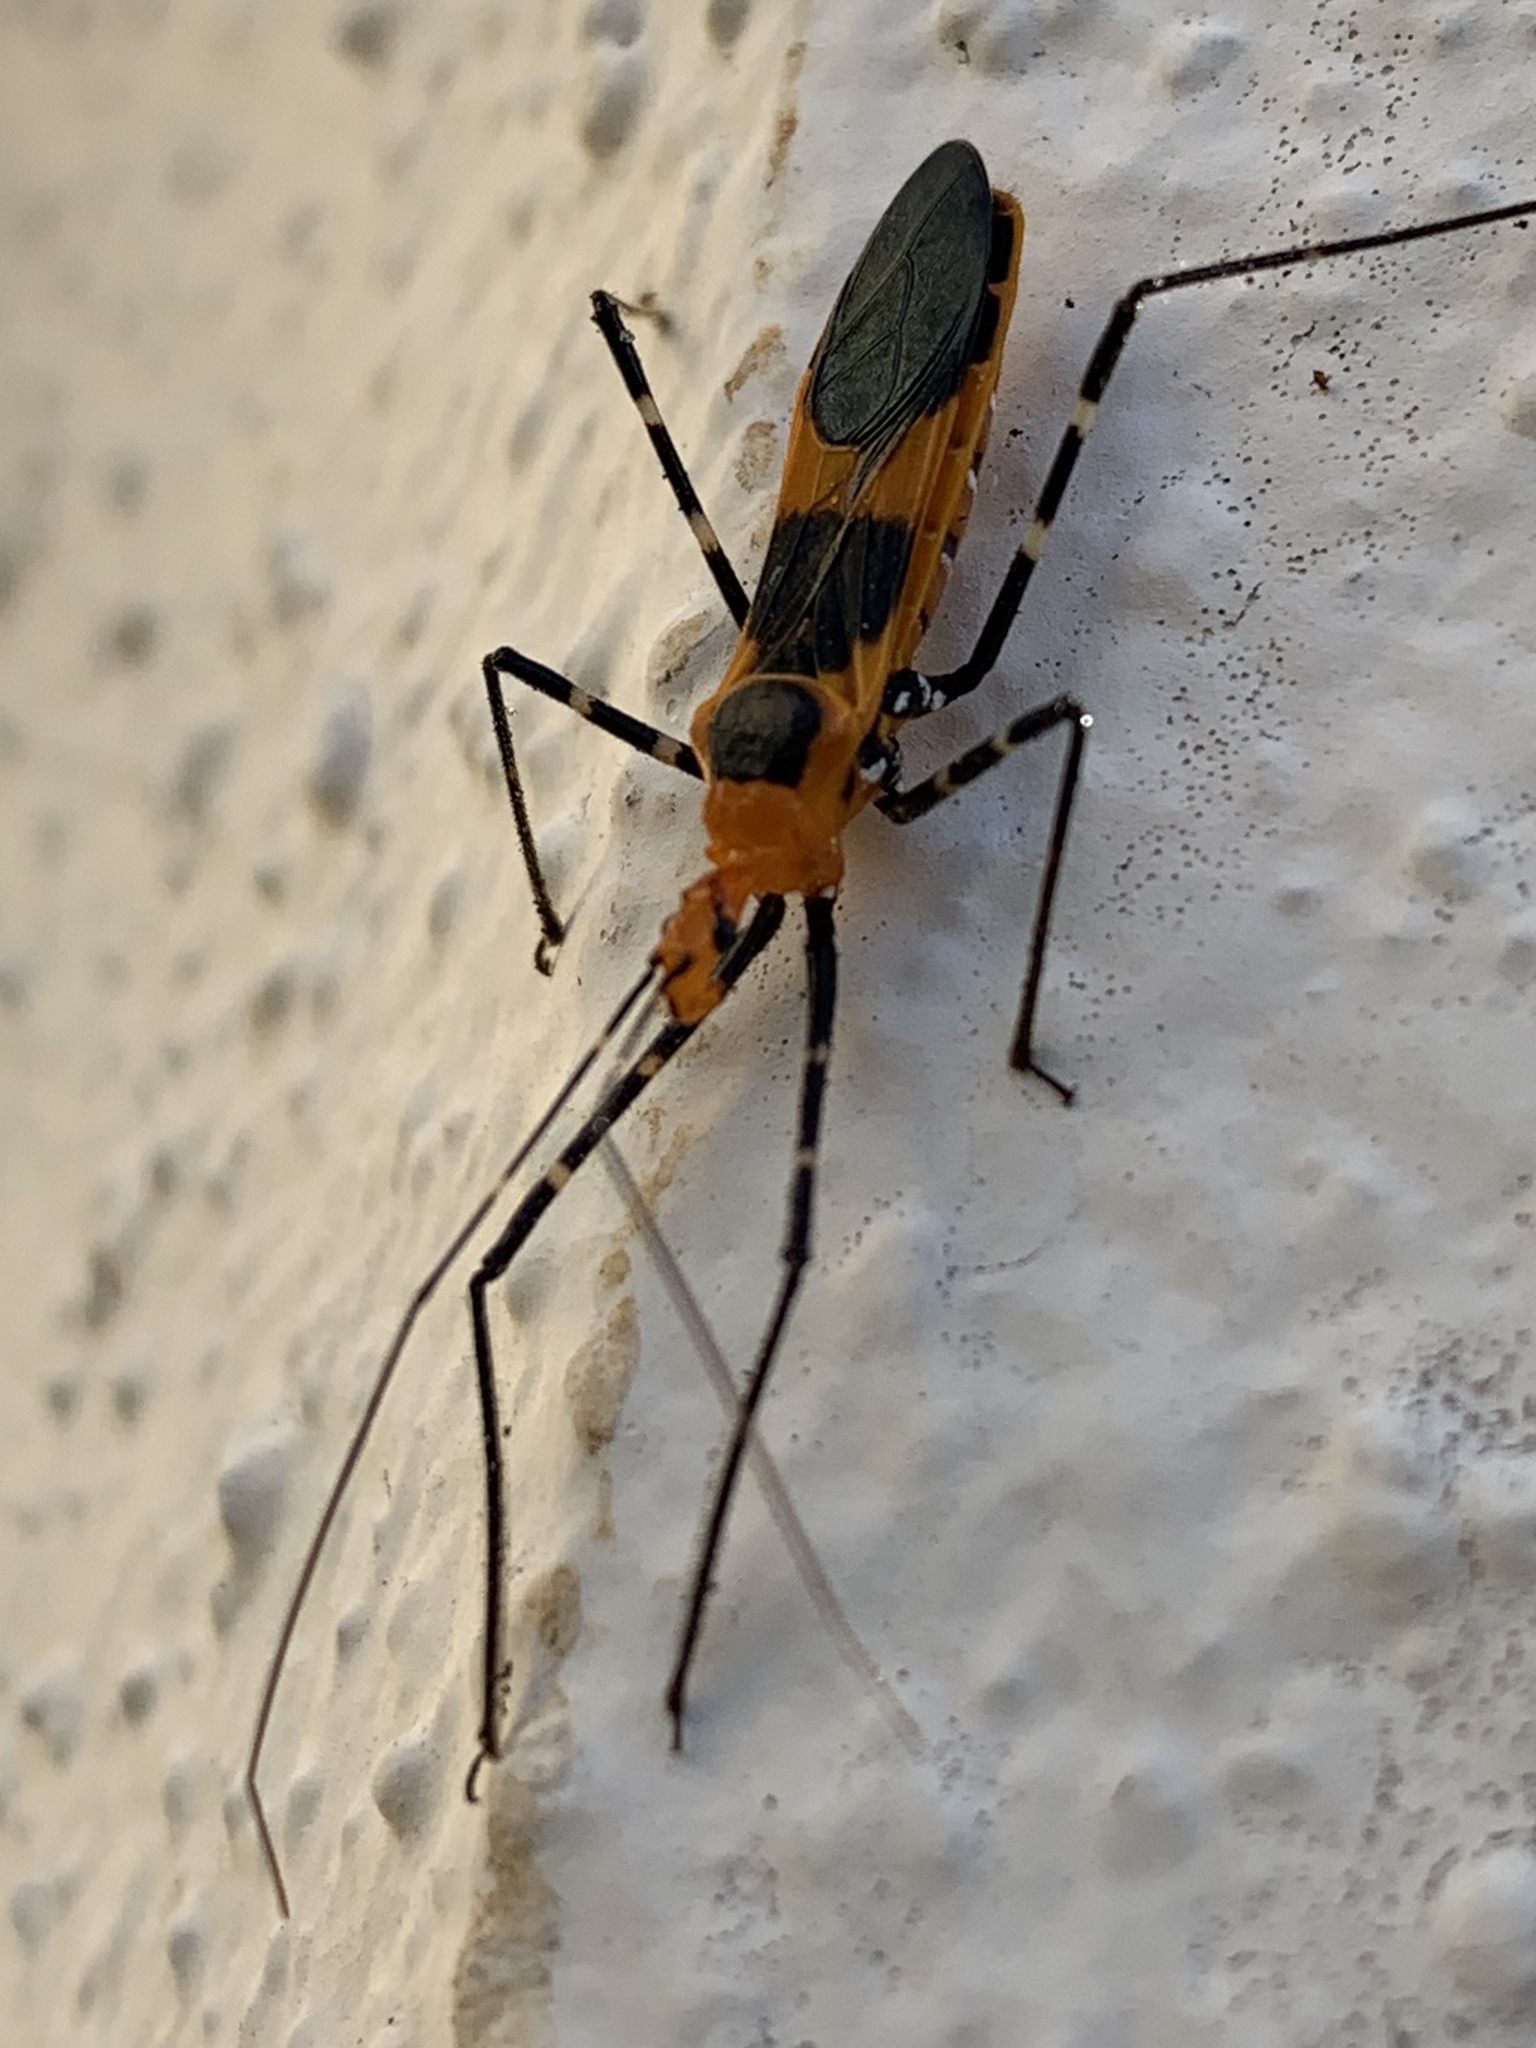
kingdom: Animalia
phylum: Arthropoda
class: Insecta
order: Hemiptera
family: Reduviidae
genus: Zelus
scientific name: Zelus longipes
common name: Milkweed assassin bug
